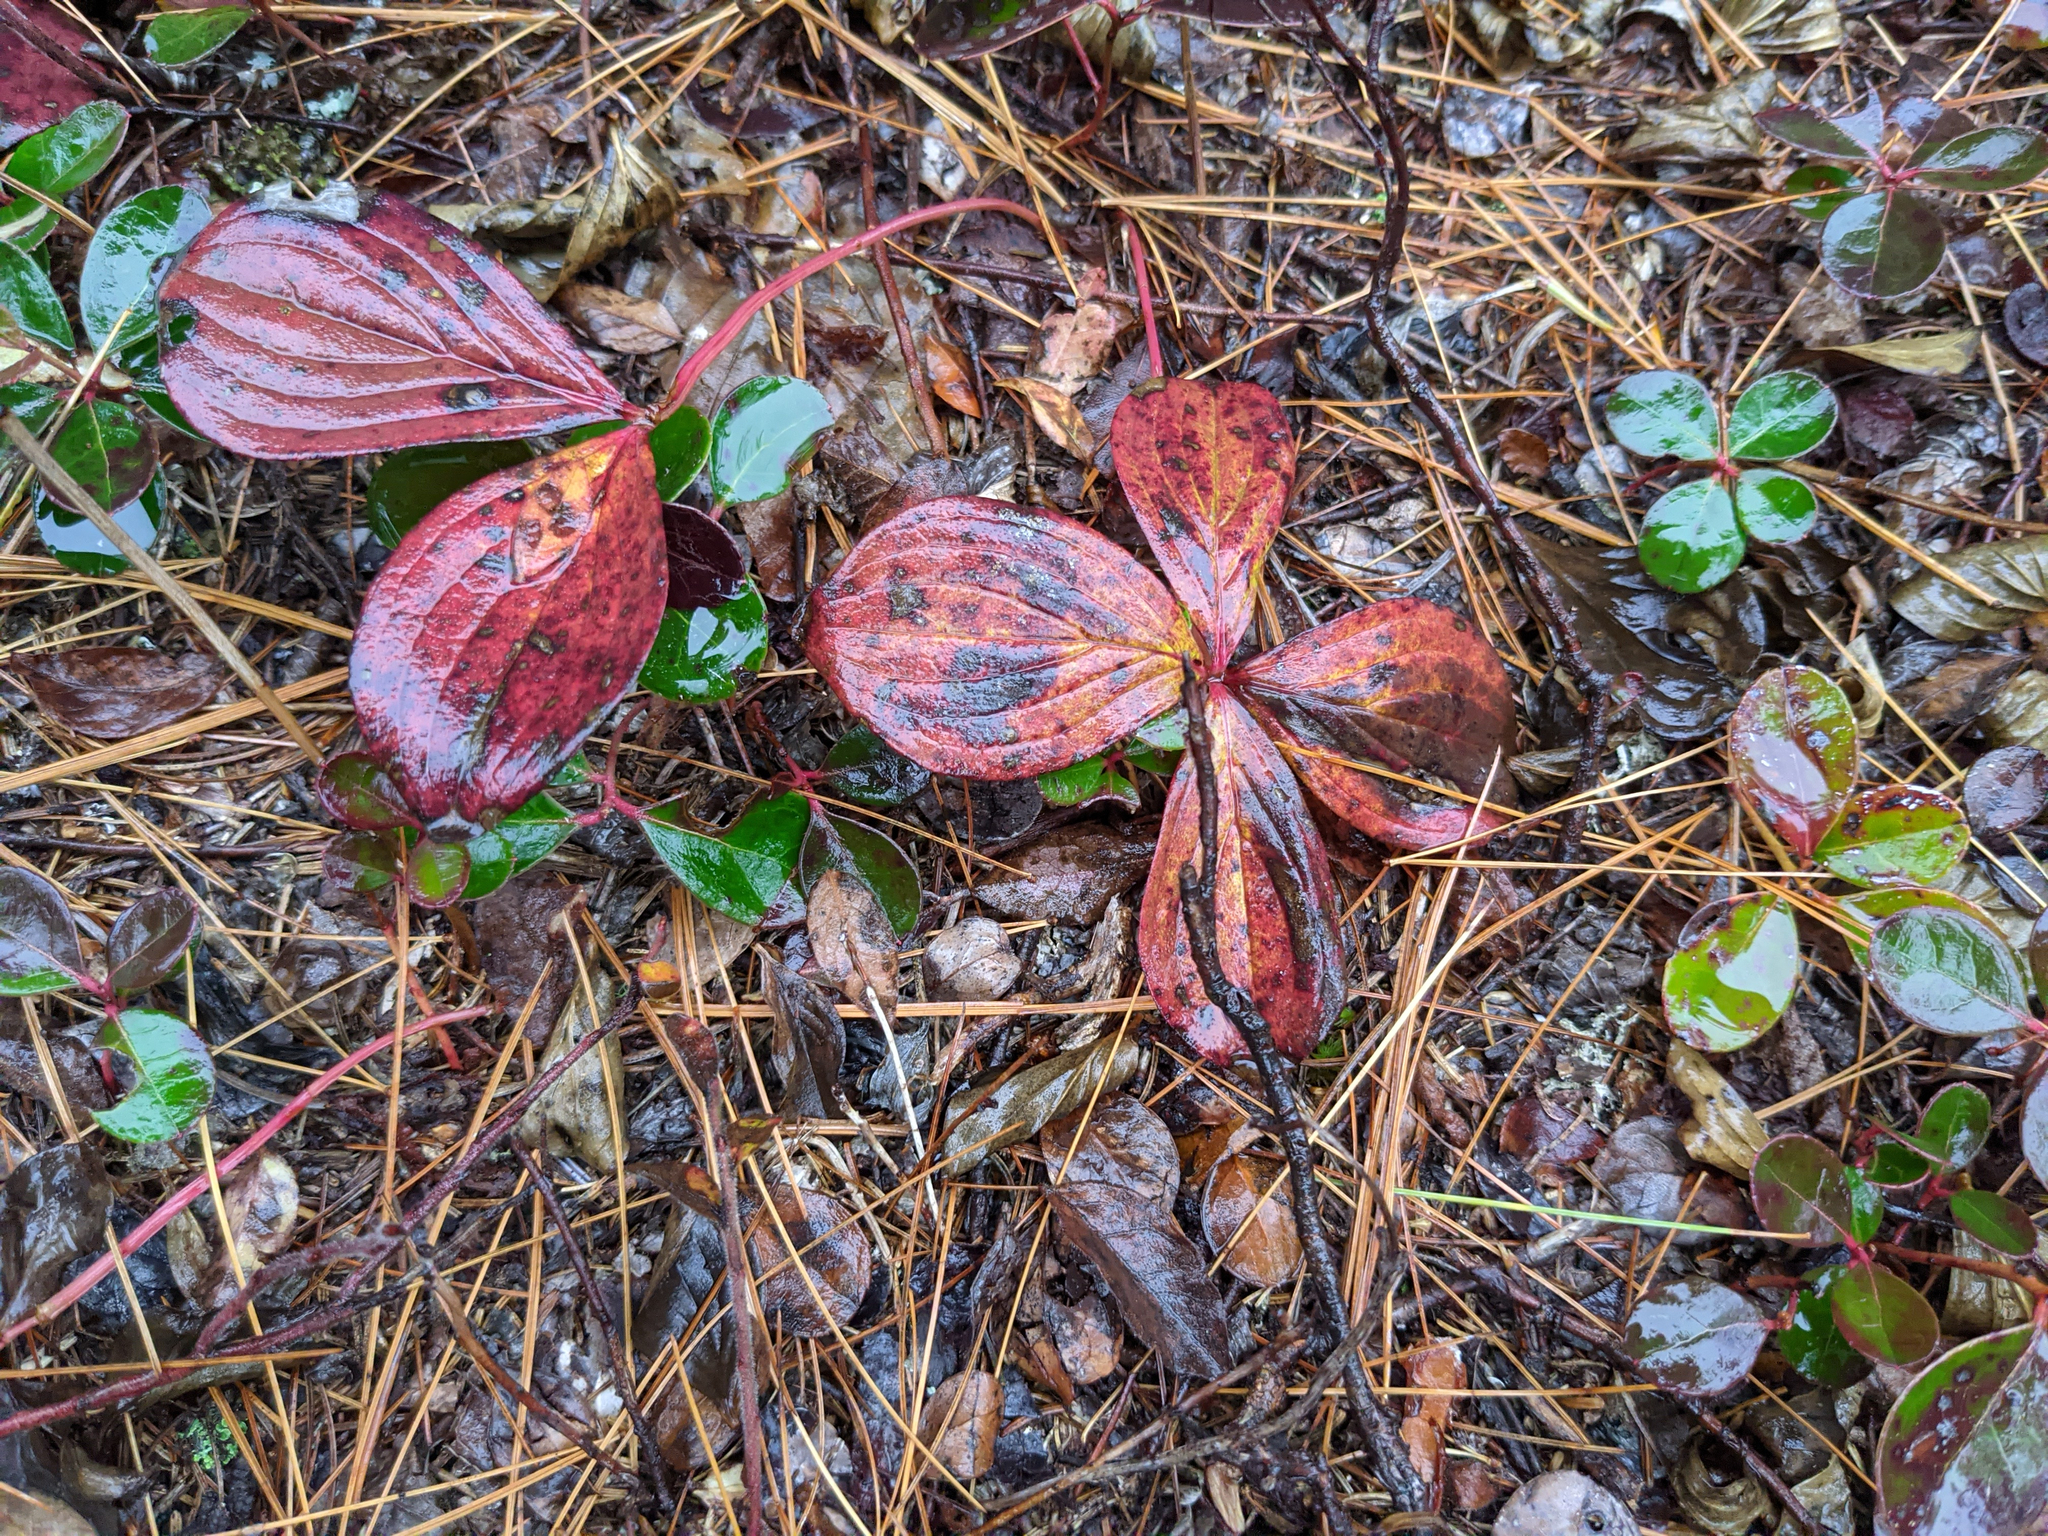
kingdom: Plantae
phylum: Tracheophyta
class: Magnoliopsida
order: Ericales
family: Ericaceae
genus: Gaultheria
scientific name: Gaultheria procumbens
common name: Checkerberry
